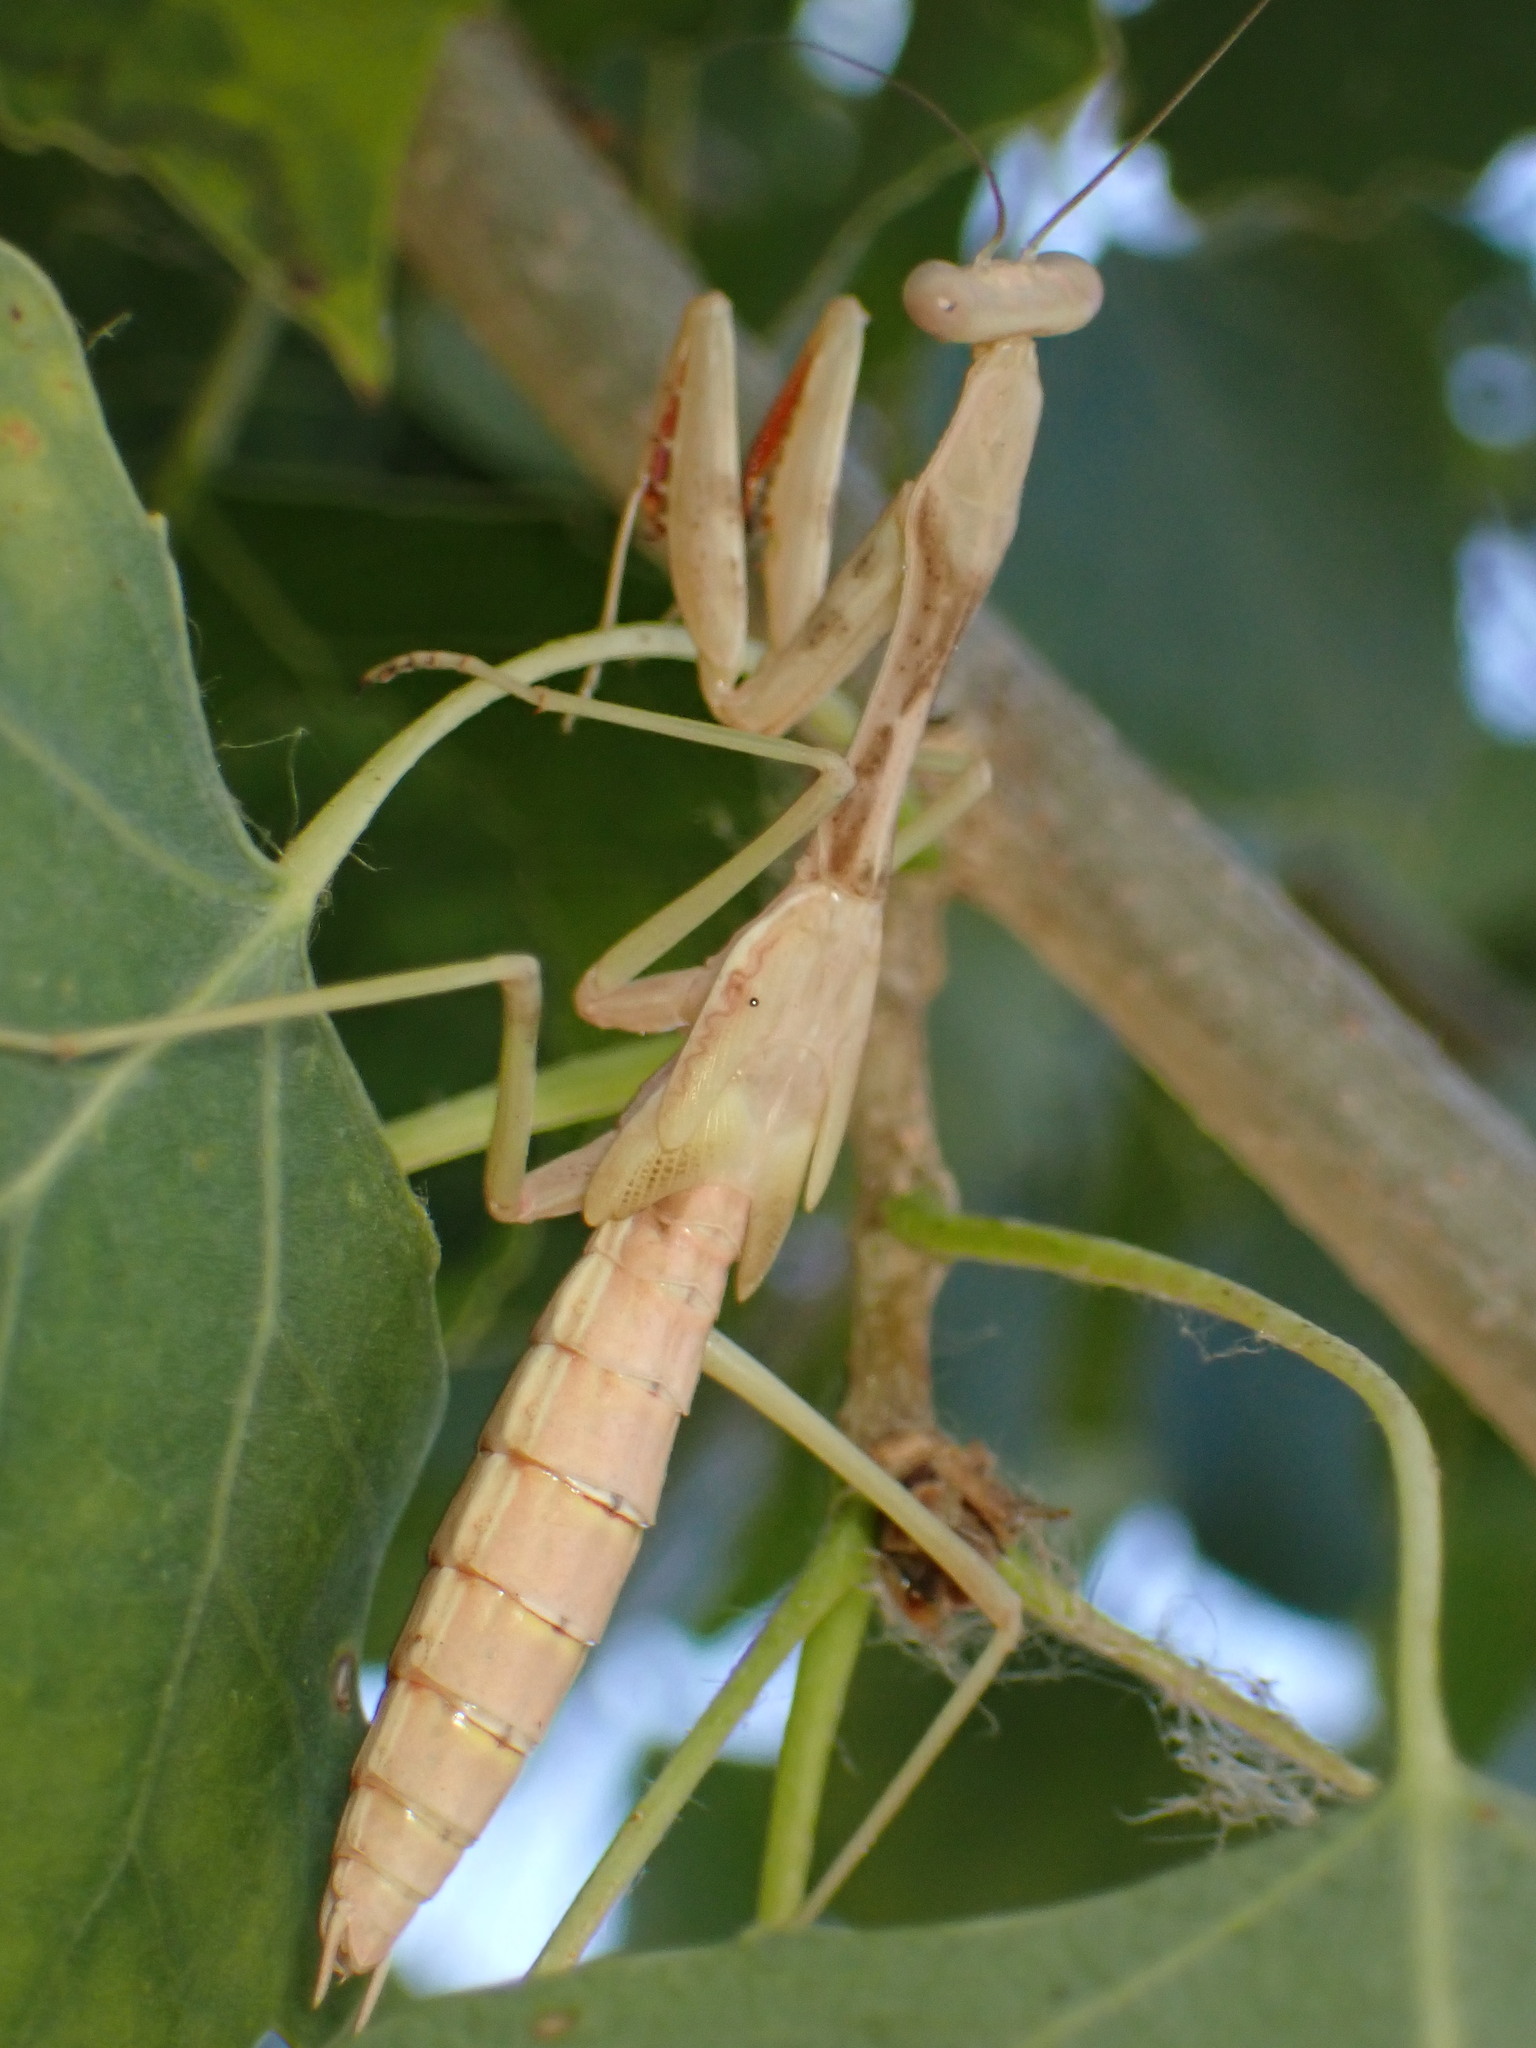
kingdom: Animalia
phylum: Arthropoda
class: Insecta
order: Mantodea
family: Mantidae
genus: Stagmomantis
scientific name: Stagmomantis limbata
